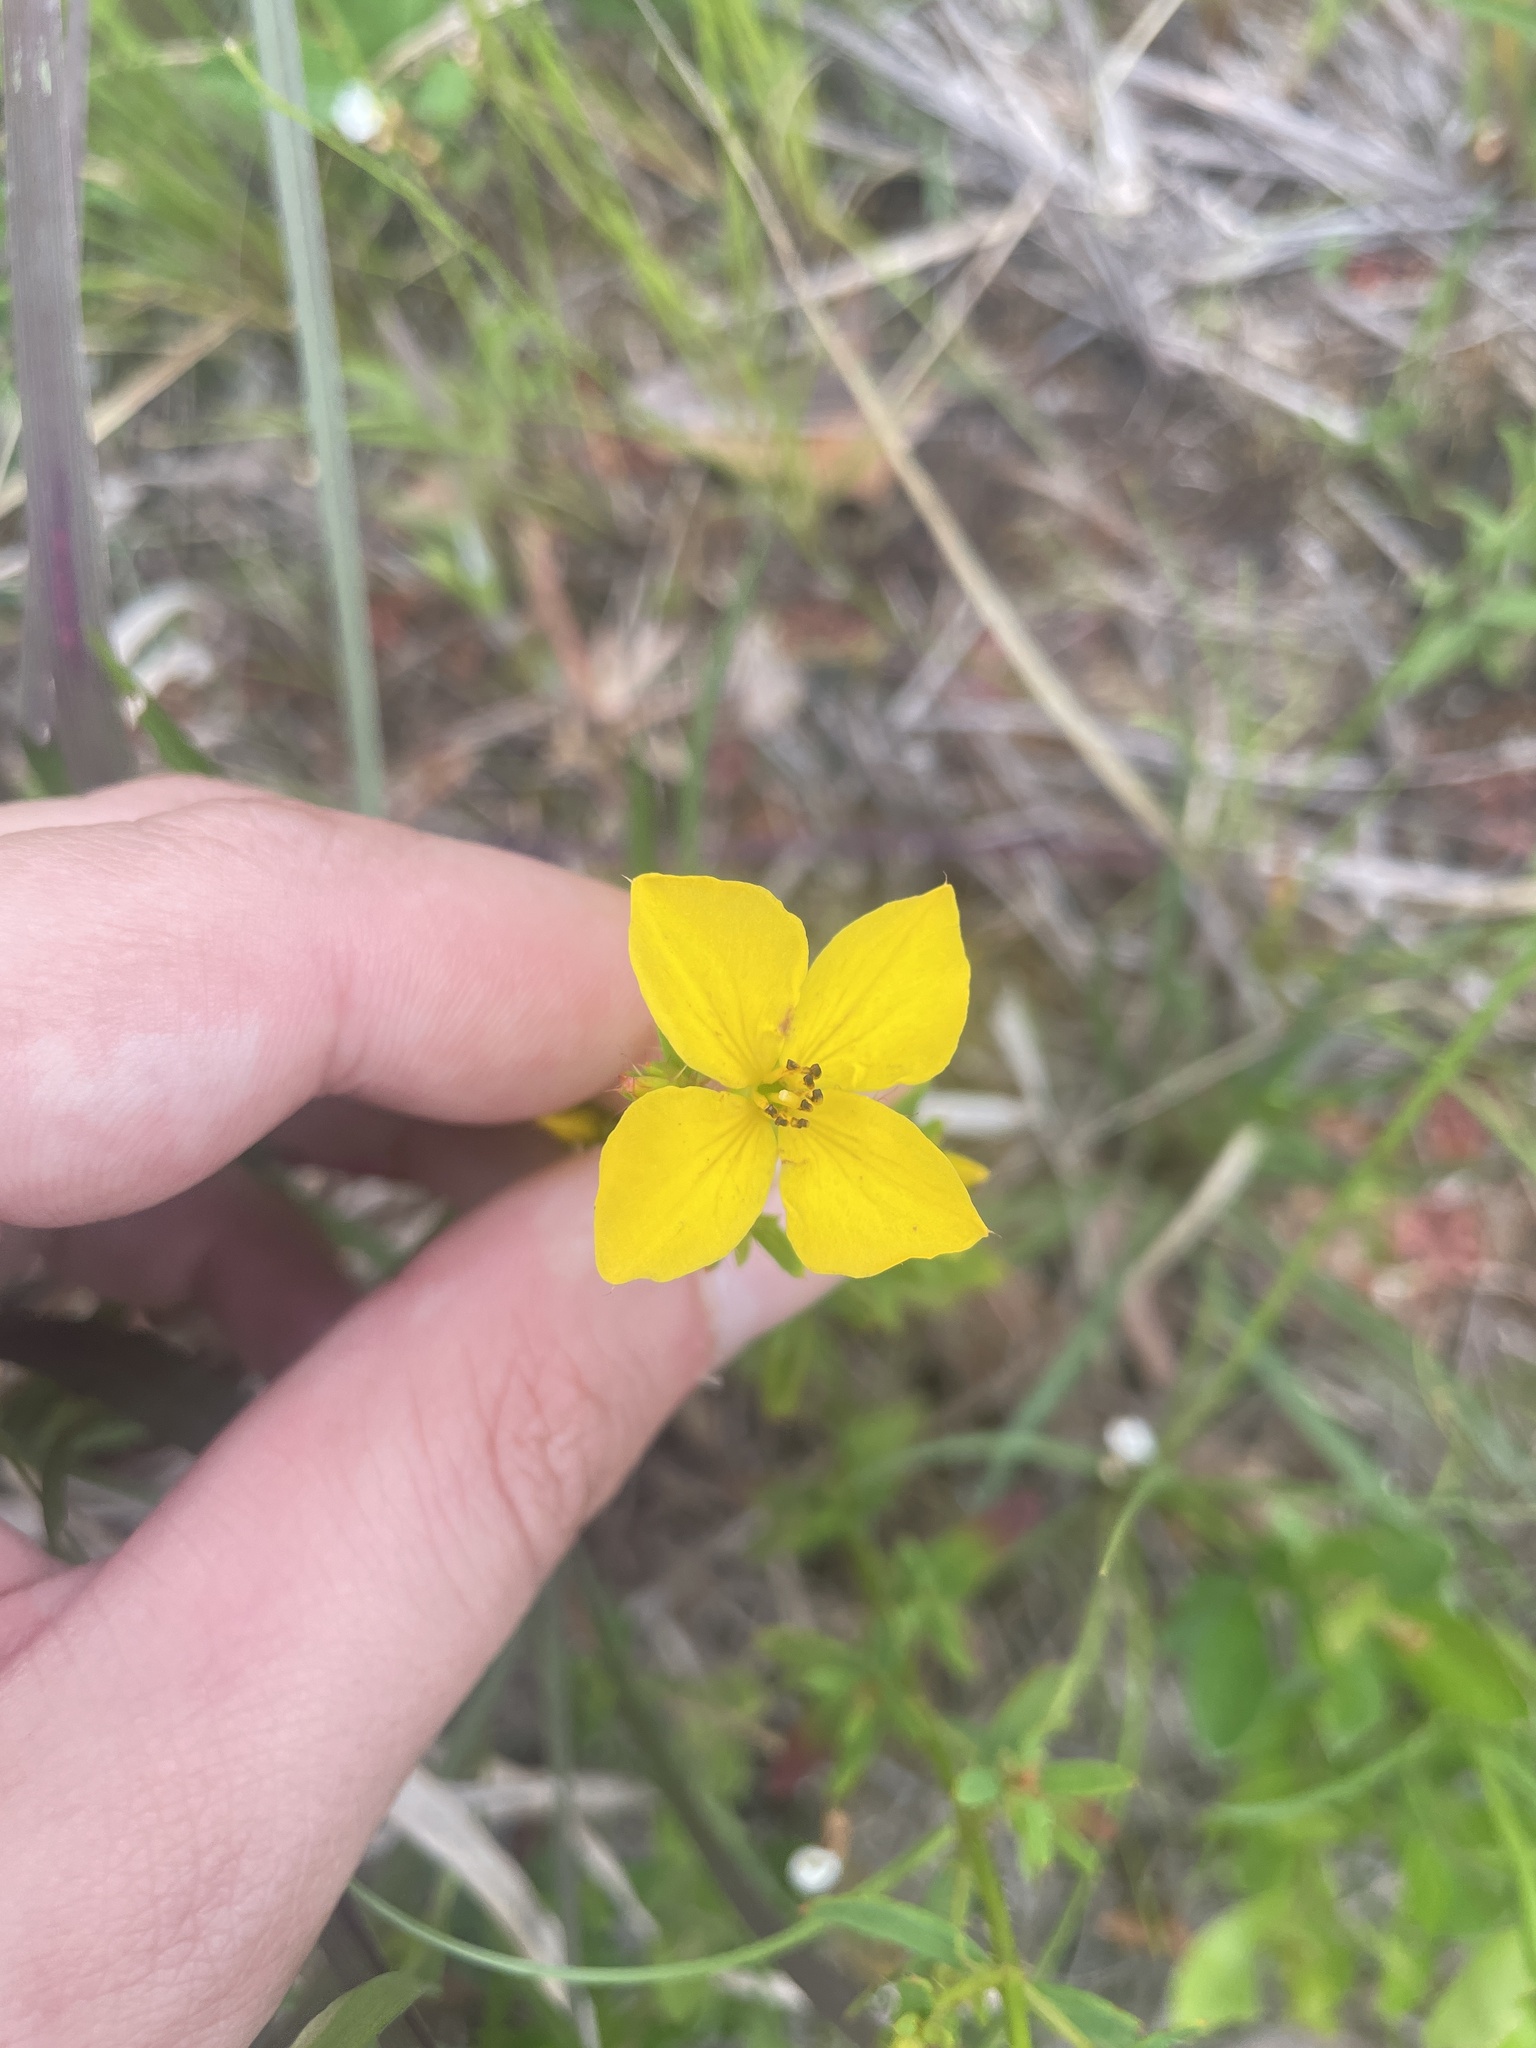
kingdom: Plantae
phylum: Tracheophyta
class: Magnoliopsida
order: Myrtales
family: Melastomataceae
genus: Rhexia
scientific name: Rhexia lutea
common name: Golden meadow-beauty
